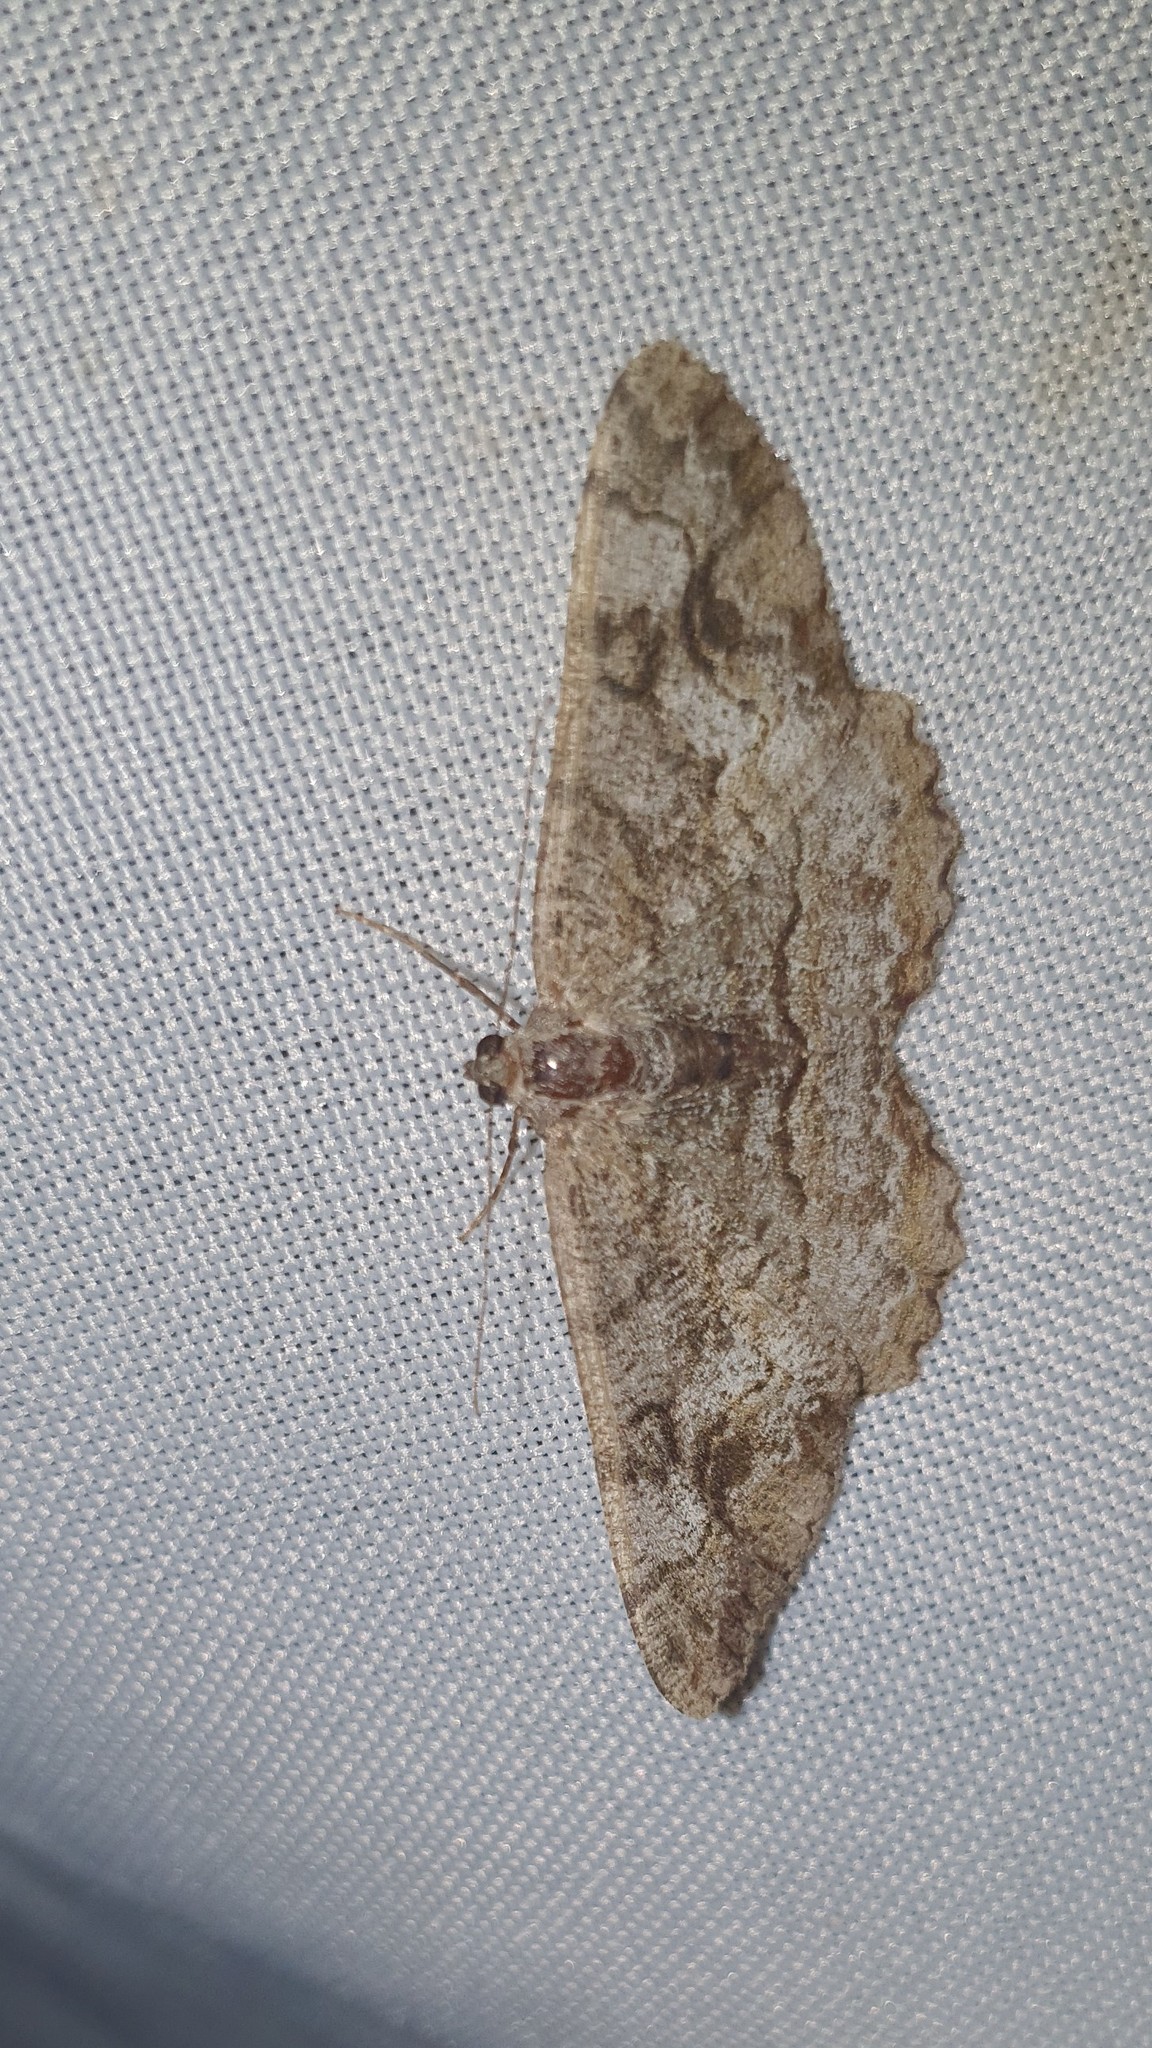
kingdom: Animalia
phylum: Arthropoda
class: Insecta
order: Lepidoptera
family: Geometridae
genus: Alcis
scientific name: Alcis repandata
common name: Mottled beauty
